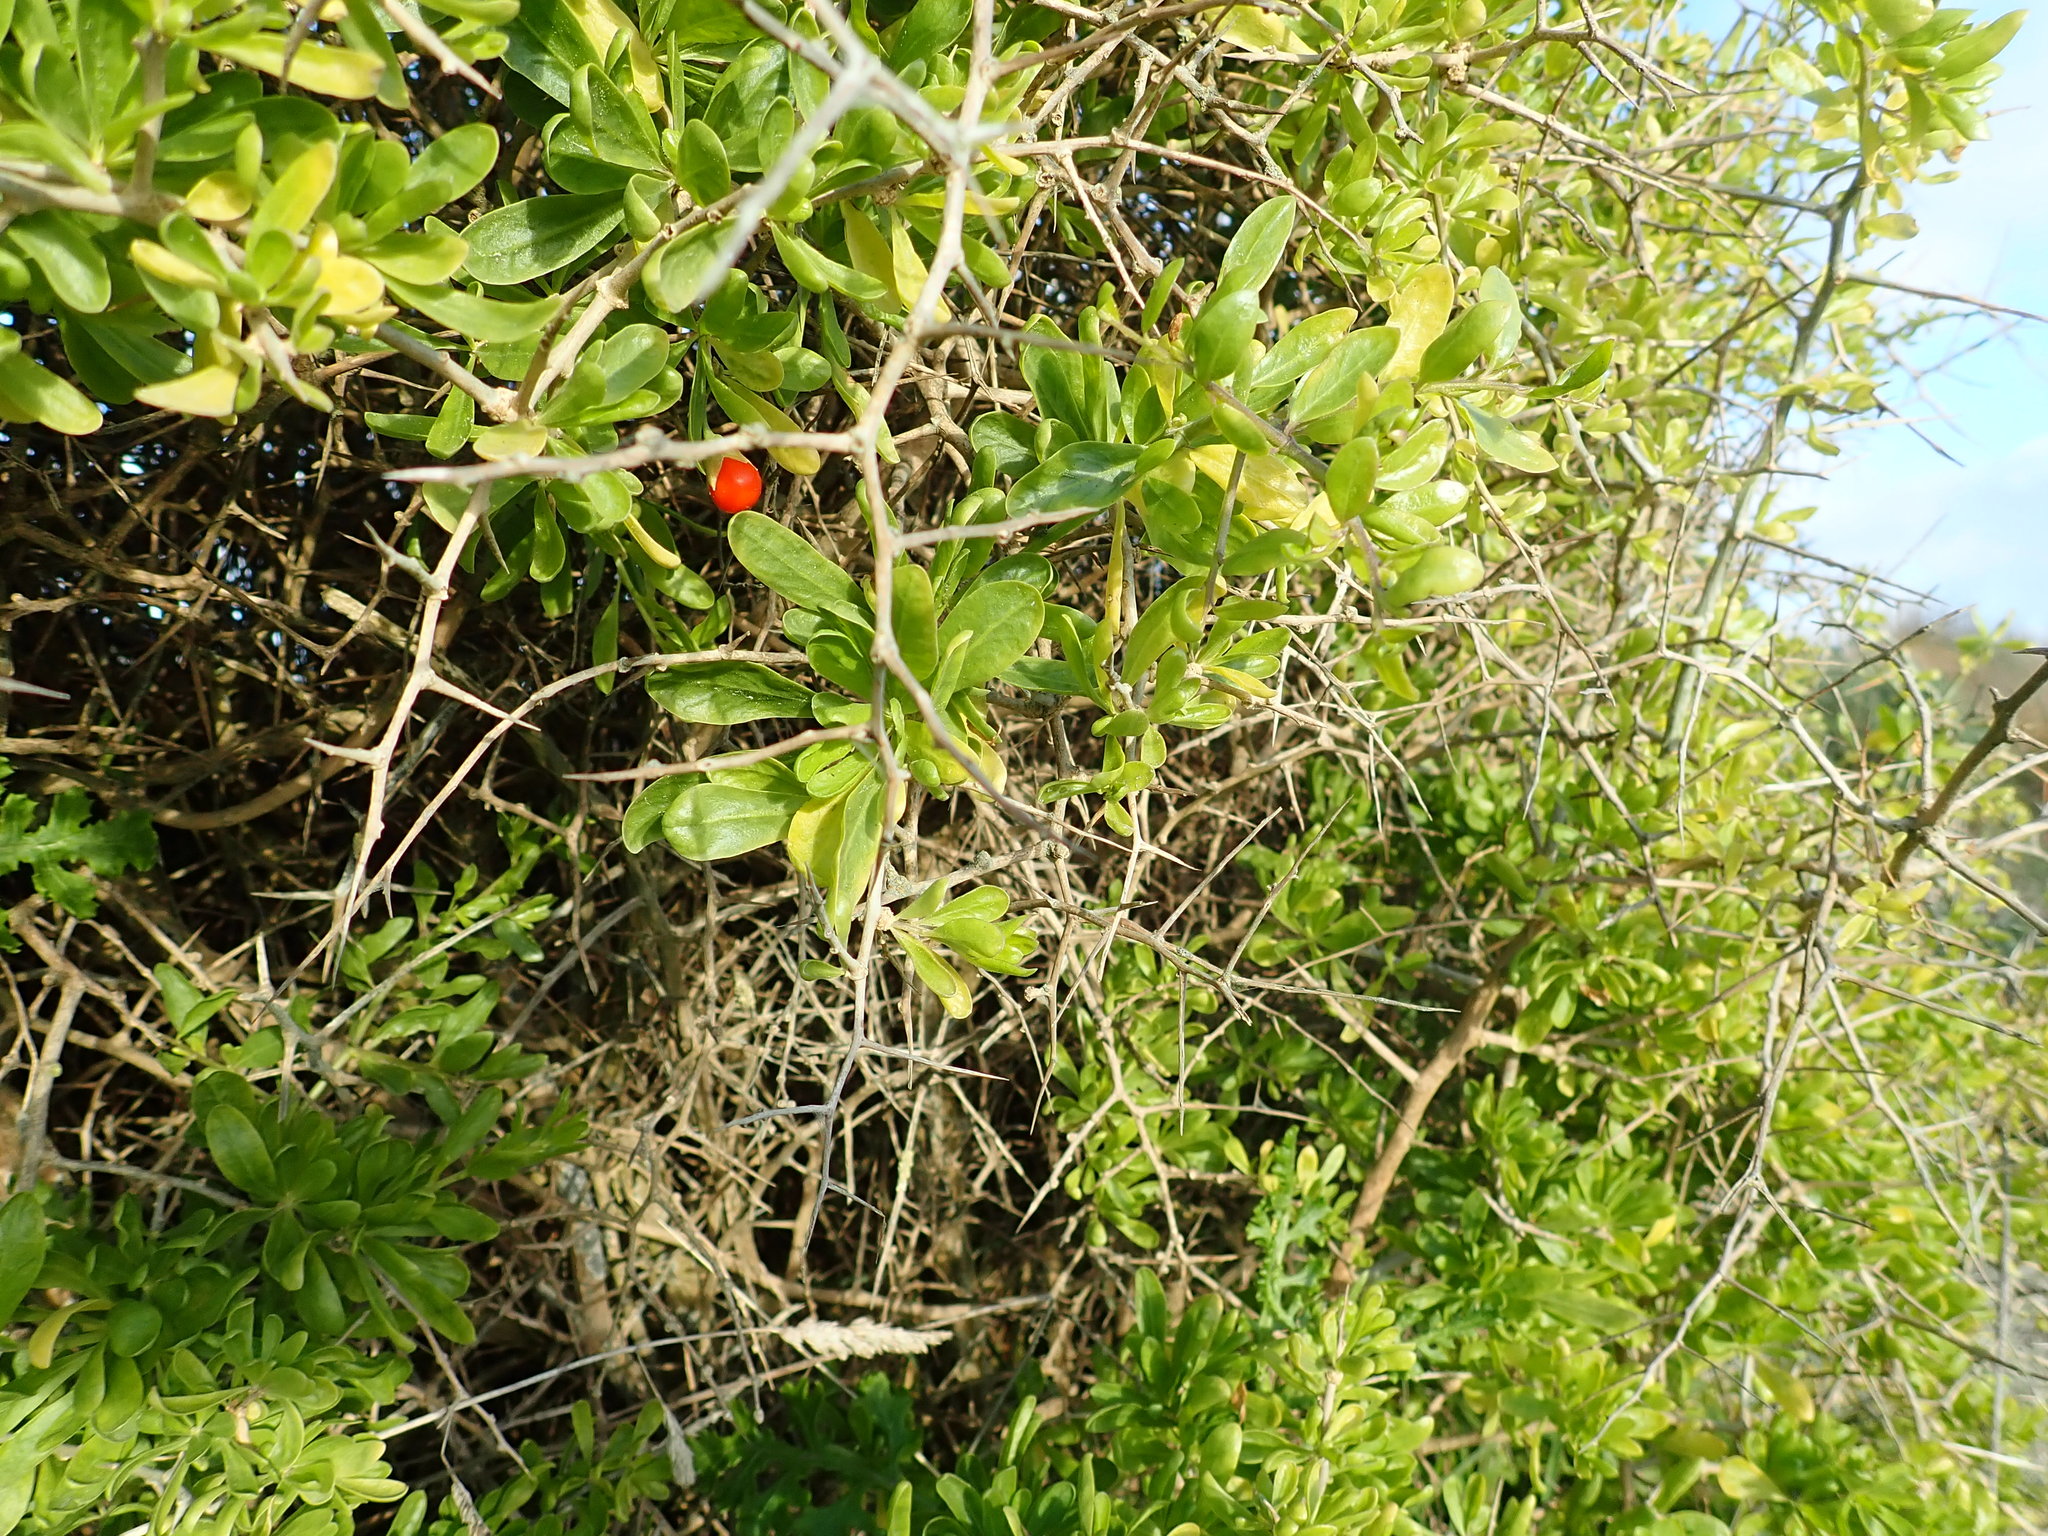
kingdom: Plantae
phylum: Tracheophyta
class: Magnoliopsida
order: Solanales
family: Solanaceae
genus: Lycium
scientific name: Lycium ferocissimum
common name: African boxthorn
